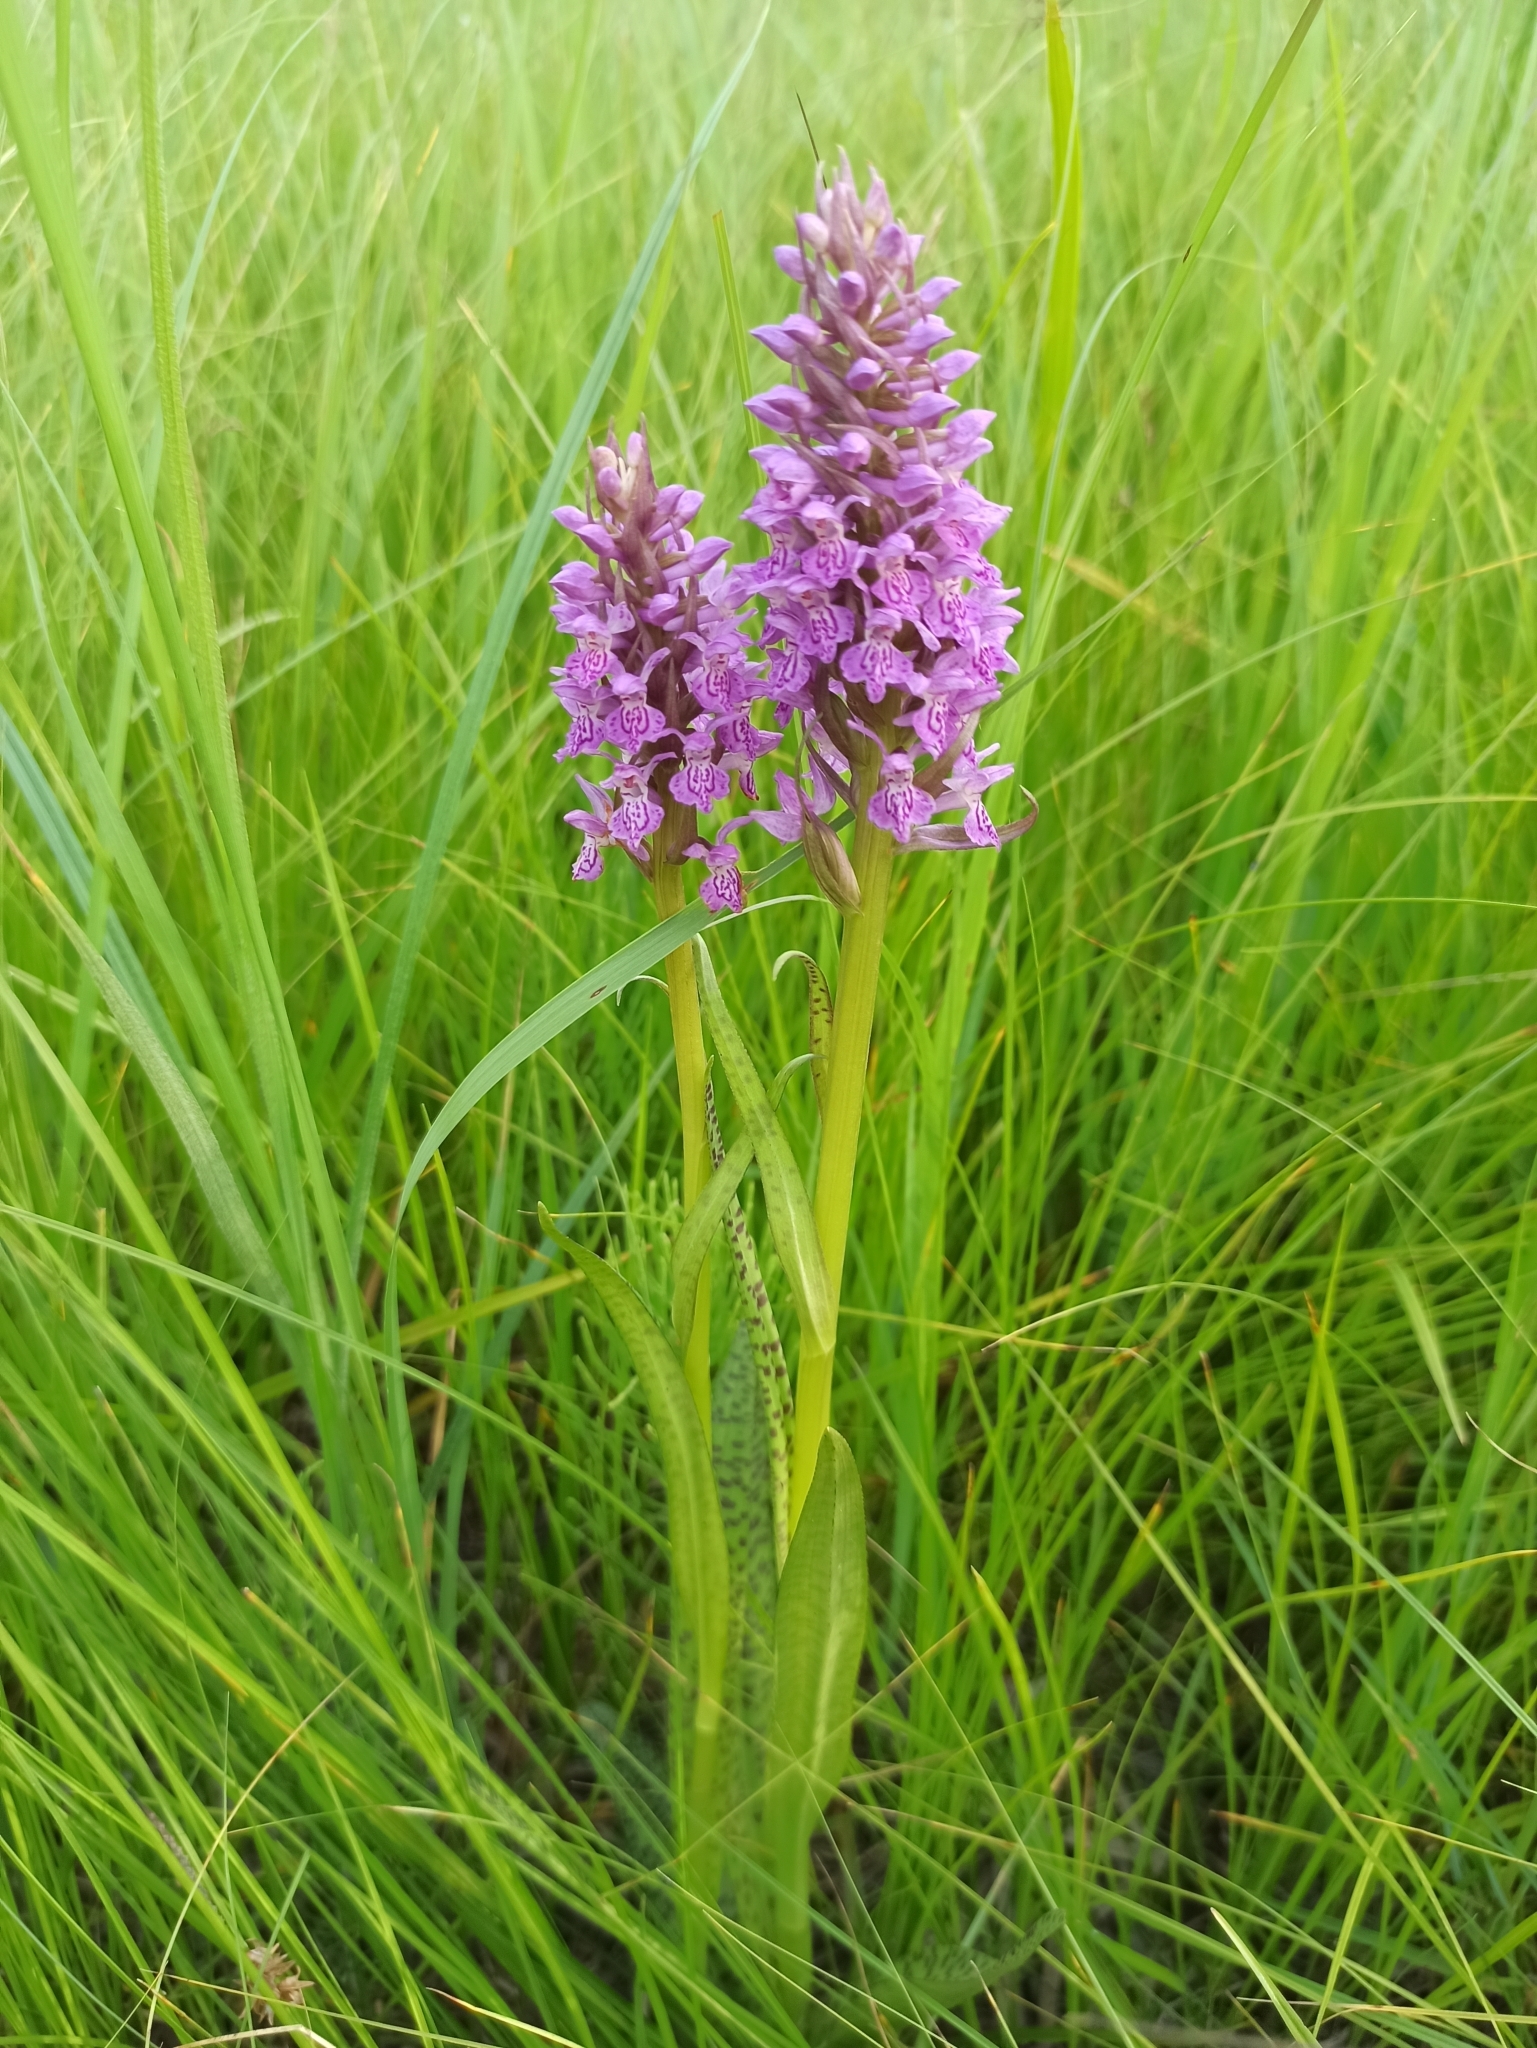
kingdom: Plantae
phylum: Tracheophyta
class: Liliopsida
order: Asparagales
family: Orchidaceae
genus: Dactylorhiza
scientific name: Dactylorhiza majalis
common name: Marsh orchid
